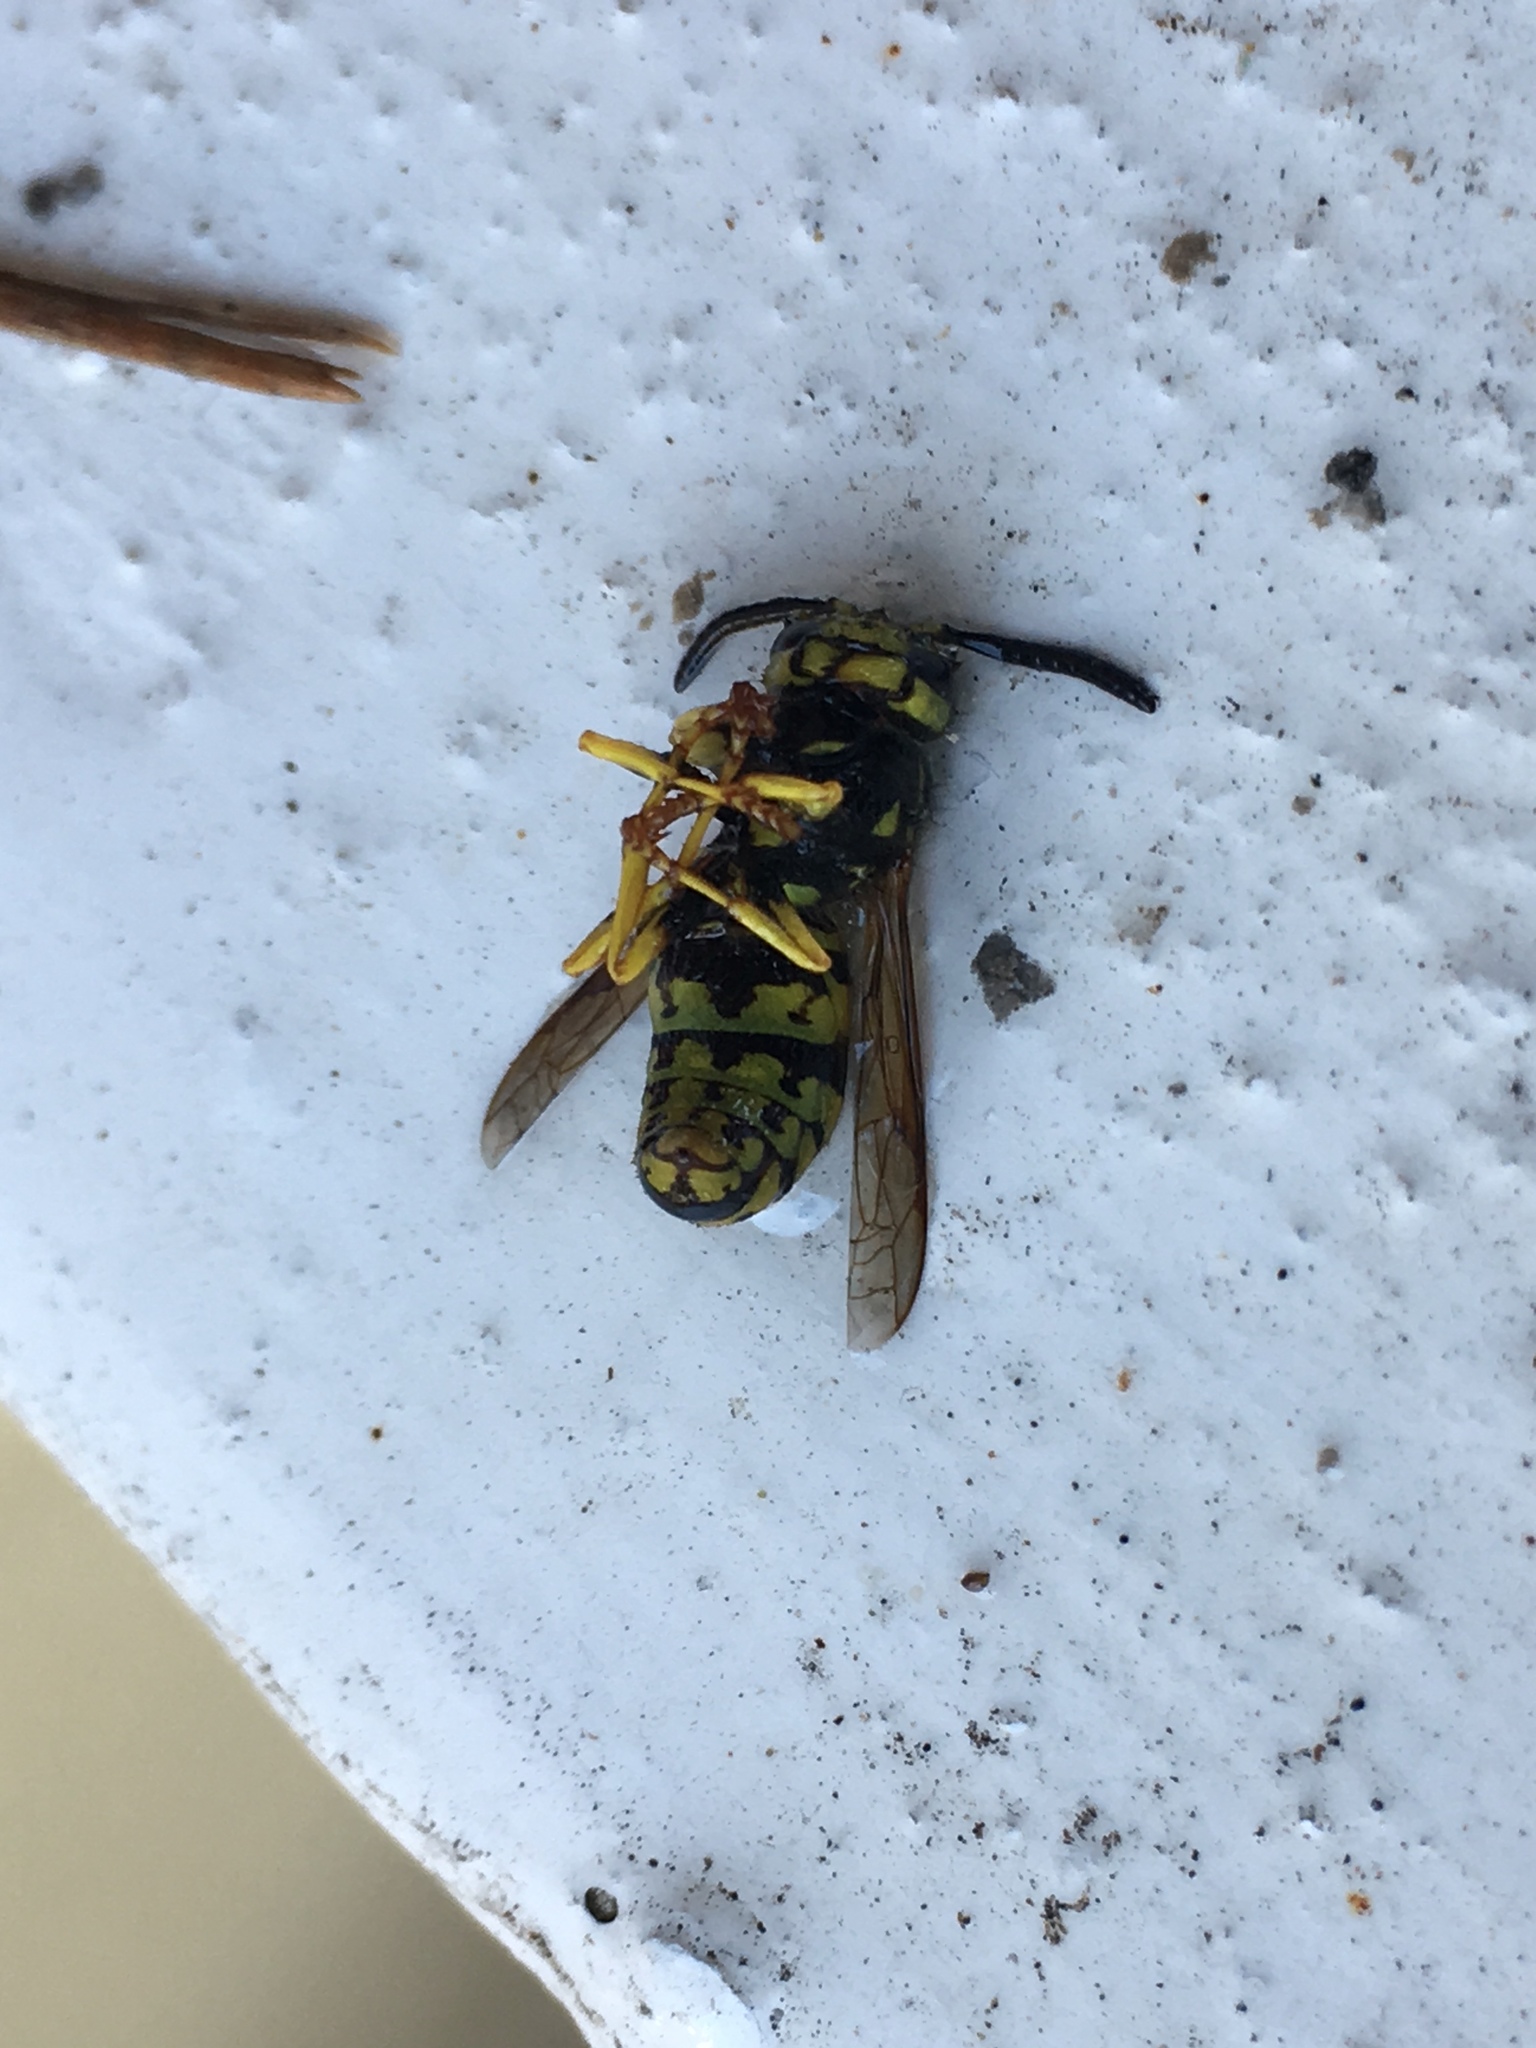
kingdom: Animalia
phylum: Arthropoda
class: Insecta
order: Hymenoptera
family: Vespidae
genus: Vespula
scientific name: Vespula pensylvanica
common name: Western yellowjacket
